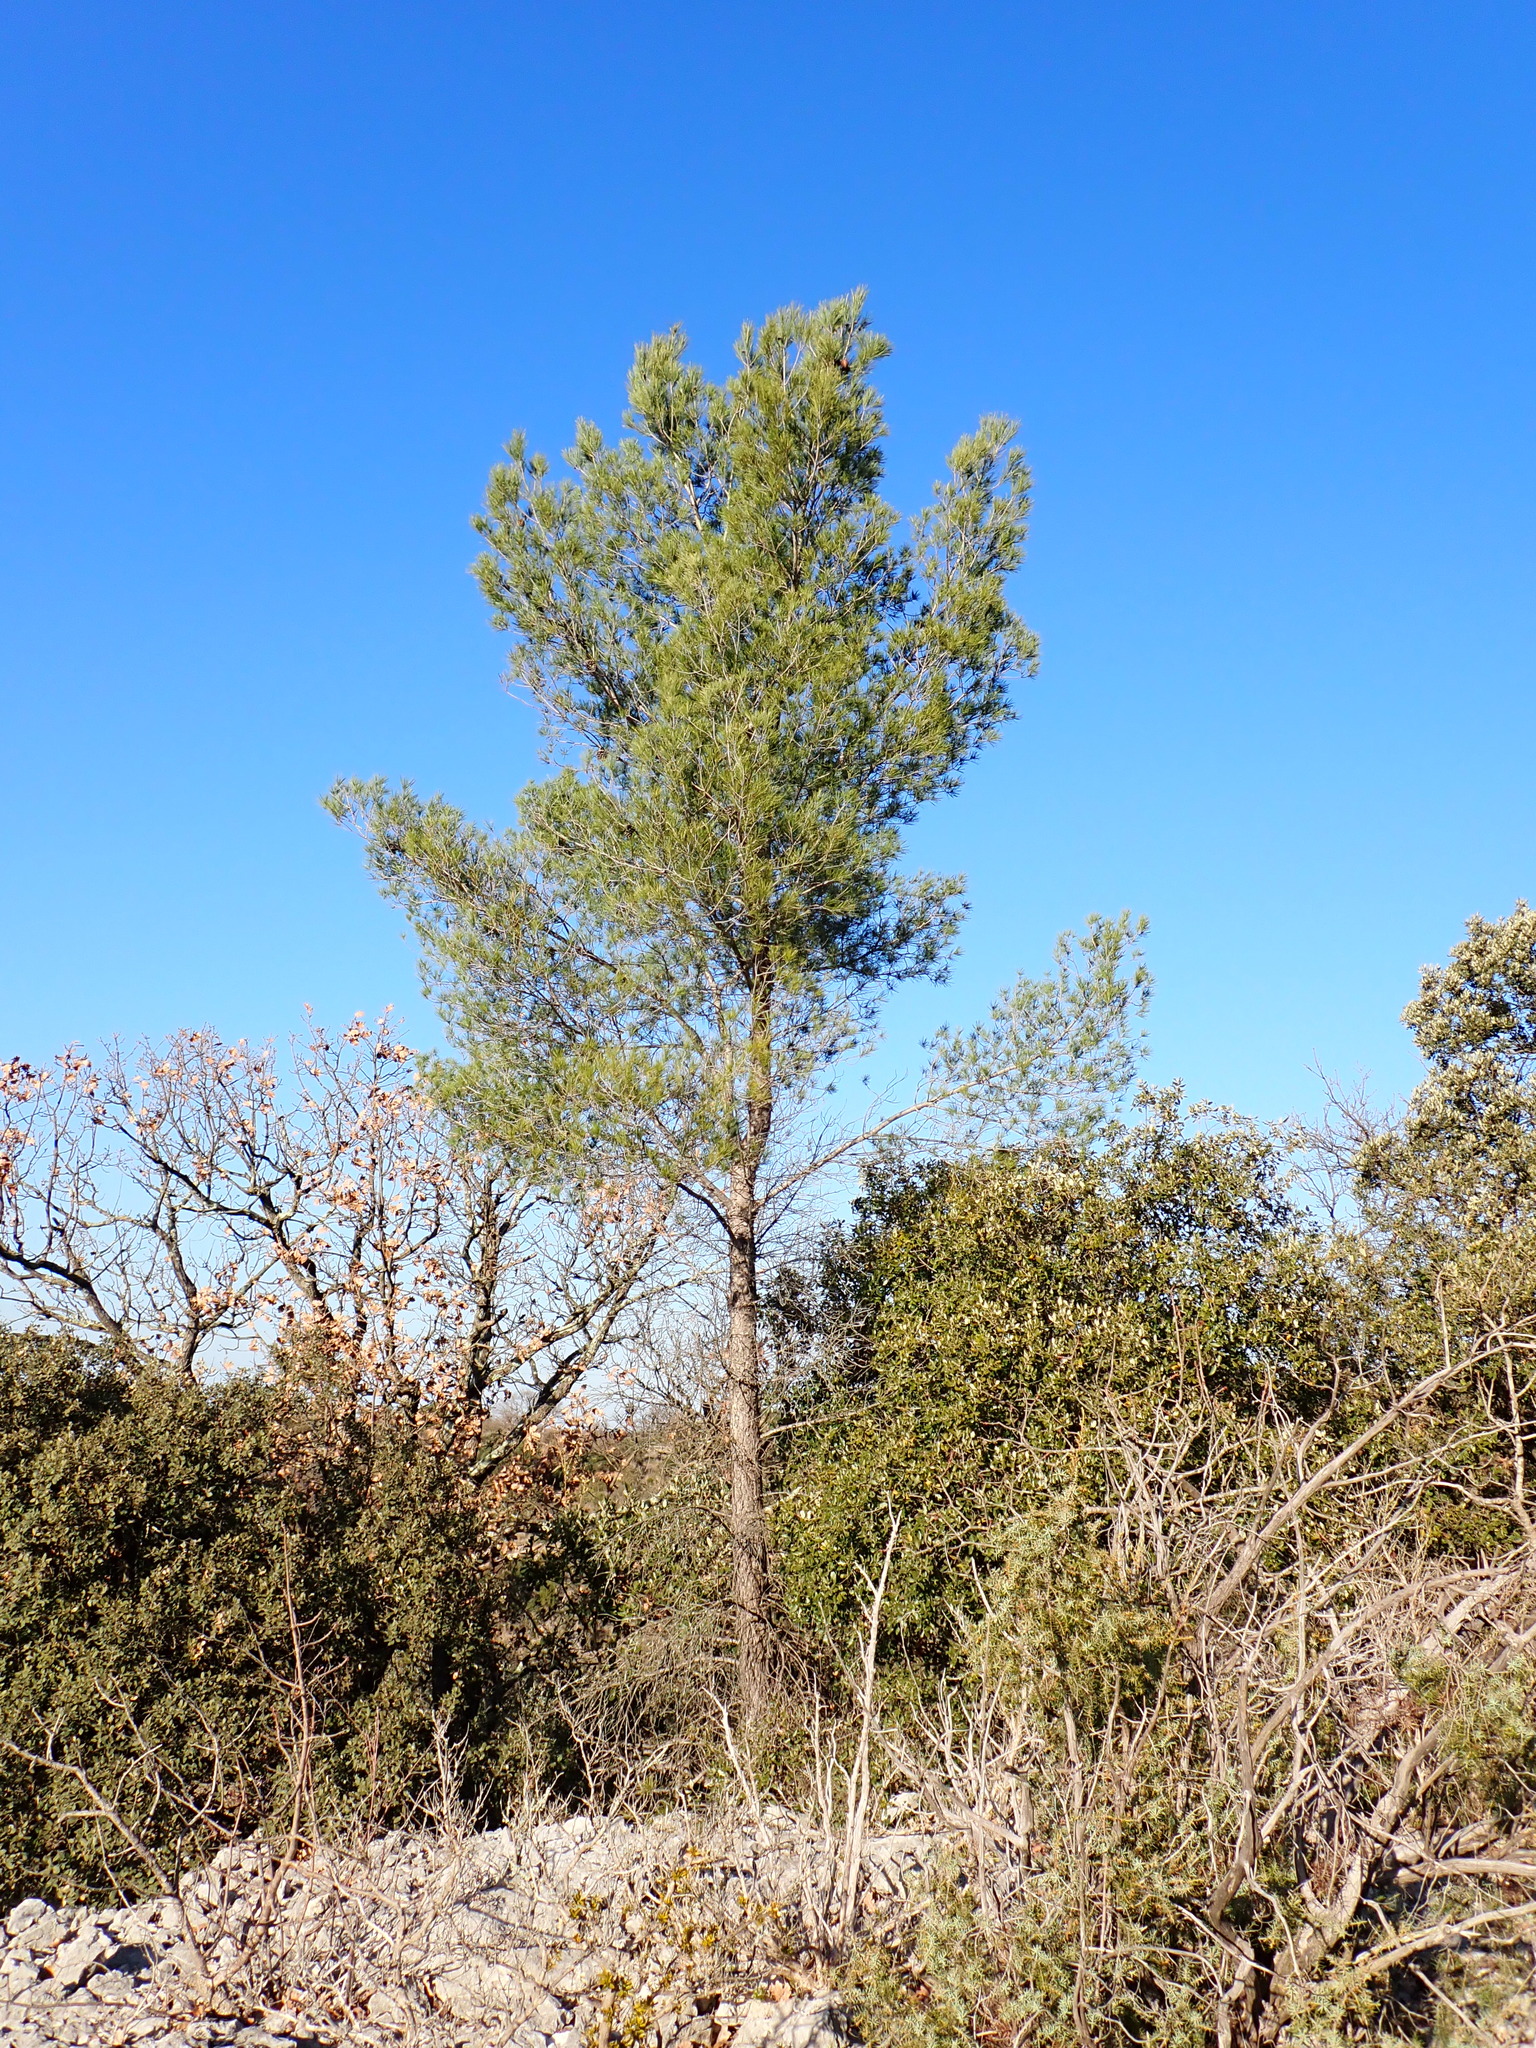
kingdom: Plantae
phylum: Tracheophyta
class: Pinopsida
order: Pinales
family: Pinaceae
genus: Pinus
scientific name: Pinus halepensis
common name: Aleppo pine
